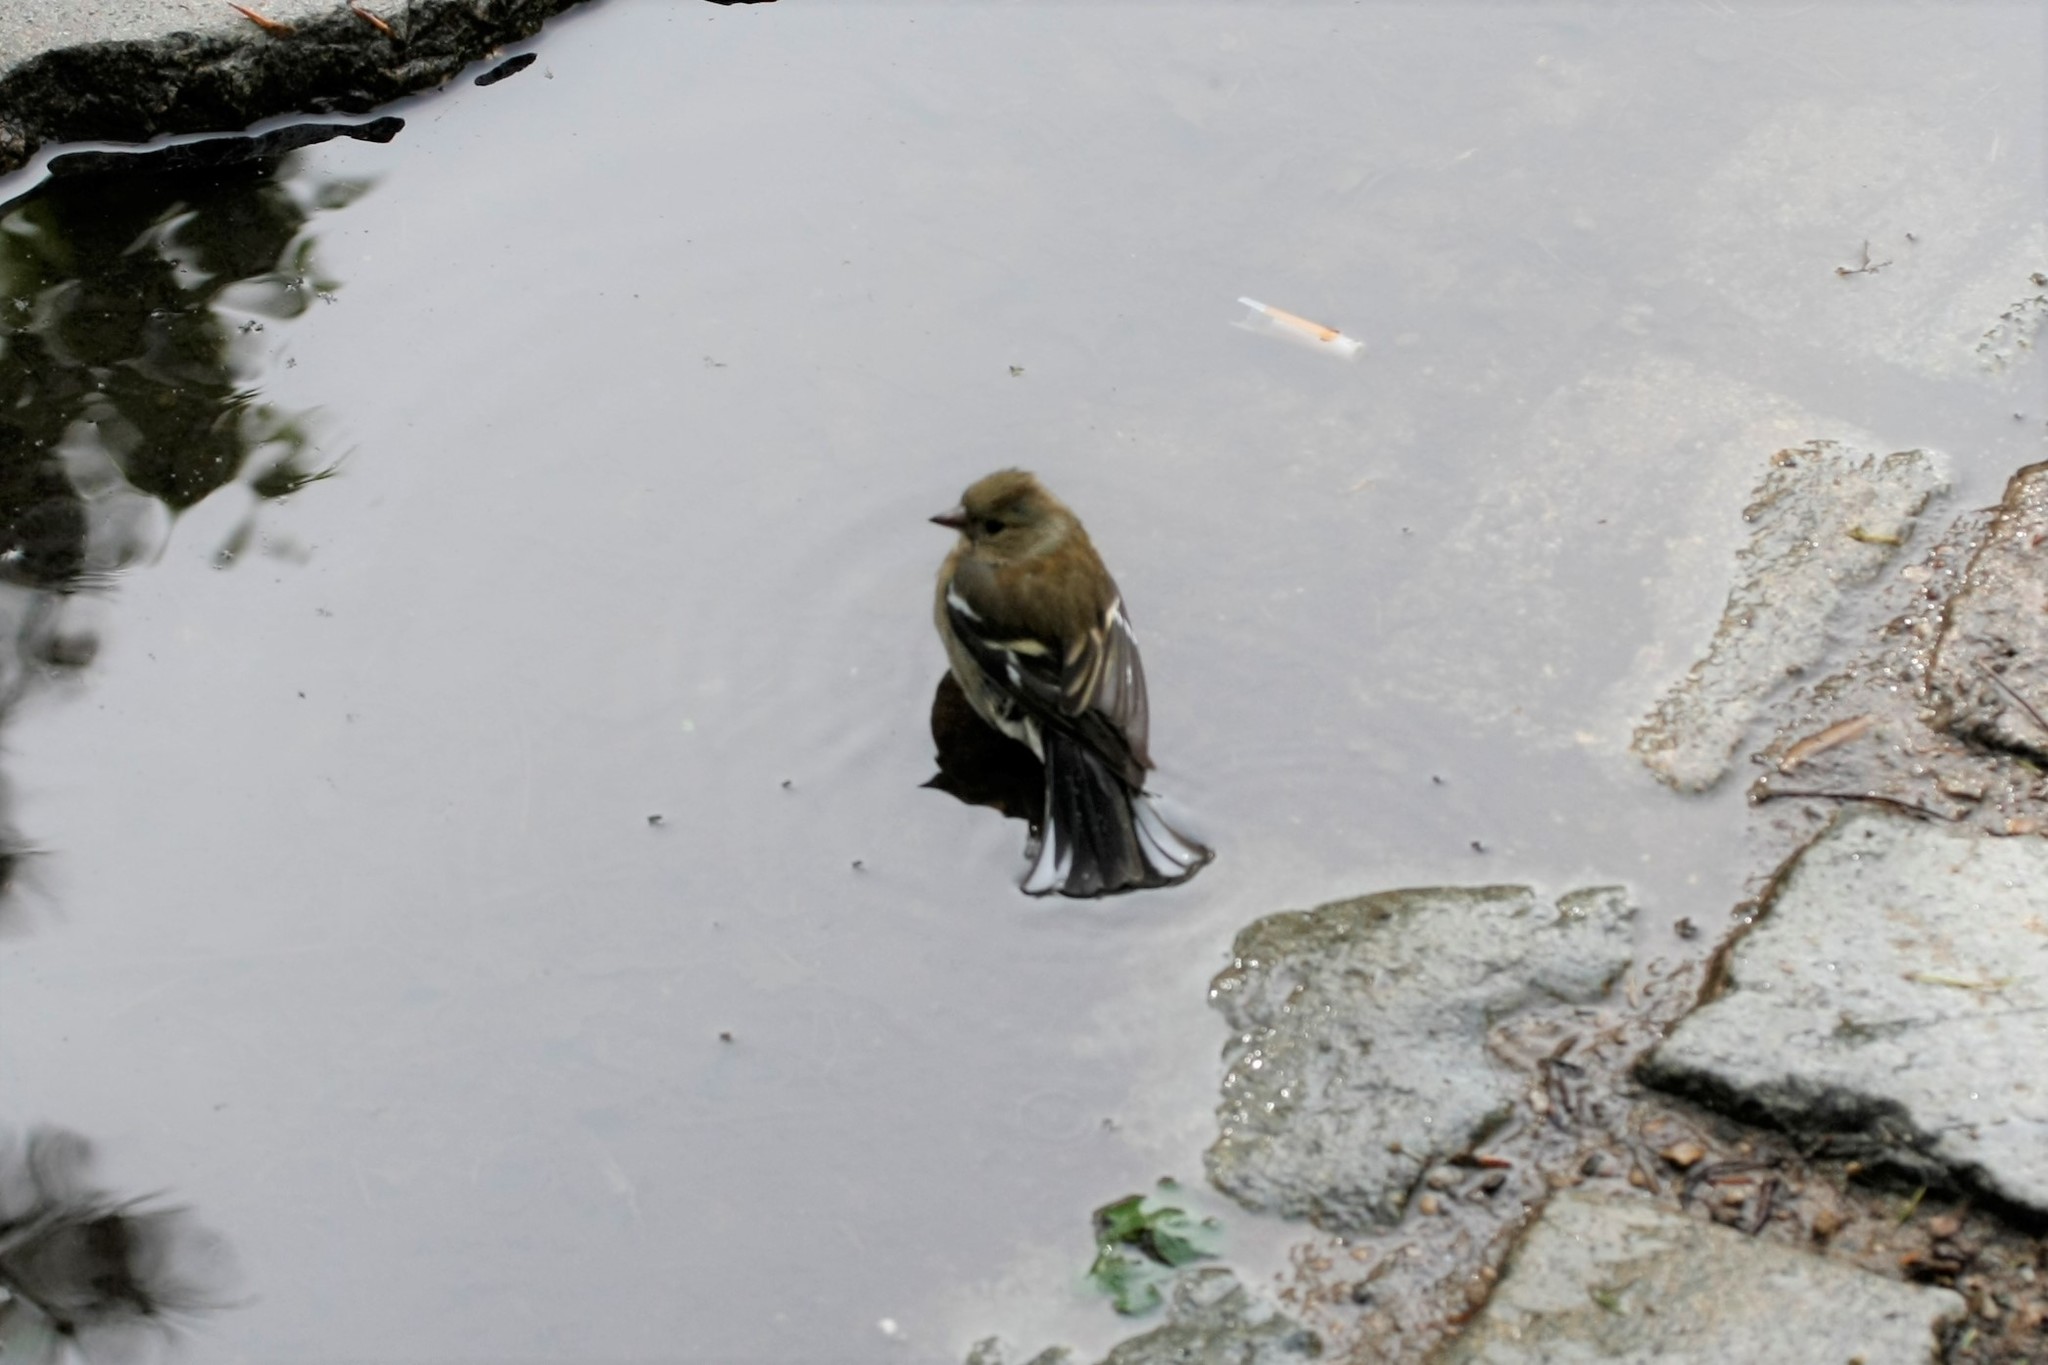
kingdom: Animalia
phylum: Chordata
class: Aves
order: Passeriformes
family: Fringillidae
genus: Fringilla
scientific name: Fringilla coelebs
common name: Common chaffinch
